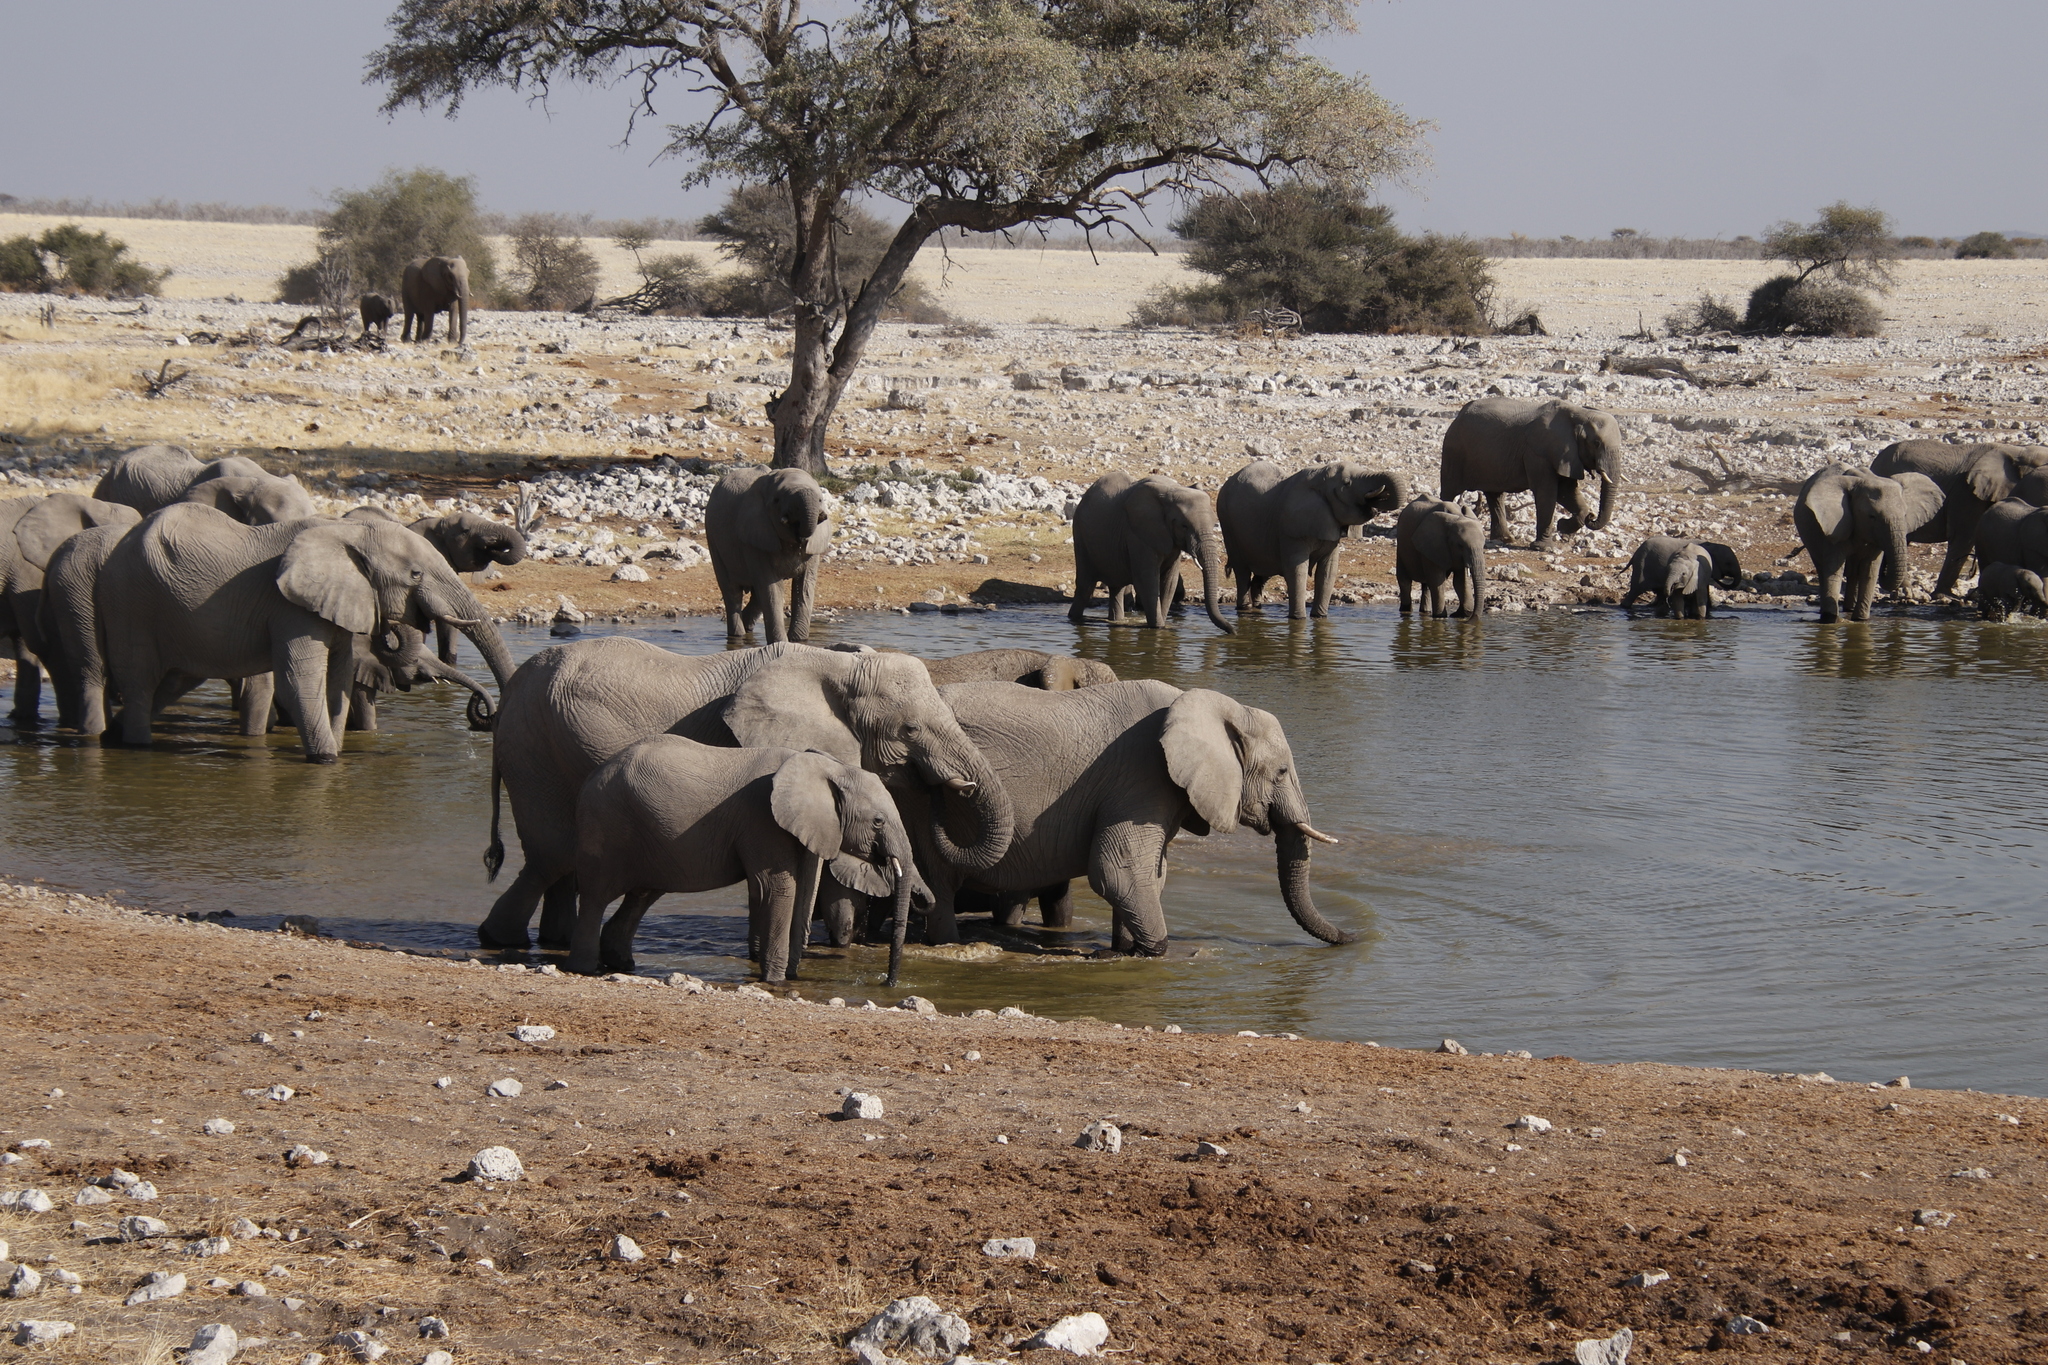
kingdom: Animalia
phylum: Chordata
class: Mammalia
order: Proboscidea
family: Elephantidae
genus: Loxodonta
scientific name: Loxodonta africana
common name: African elephant
